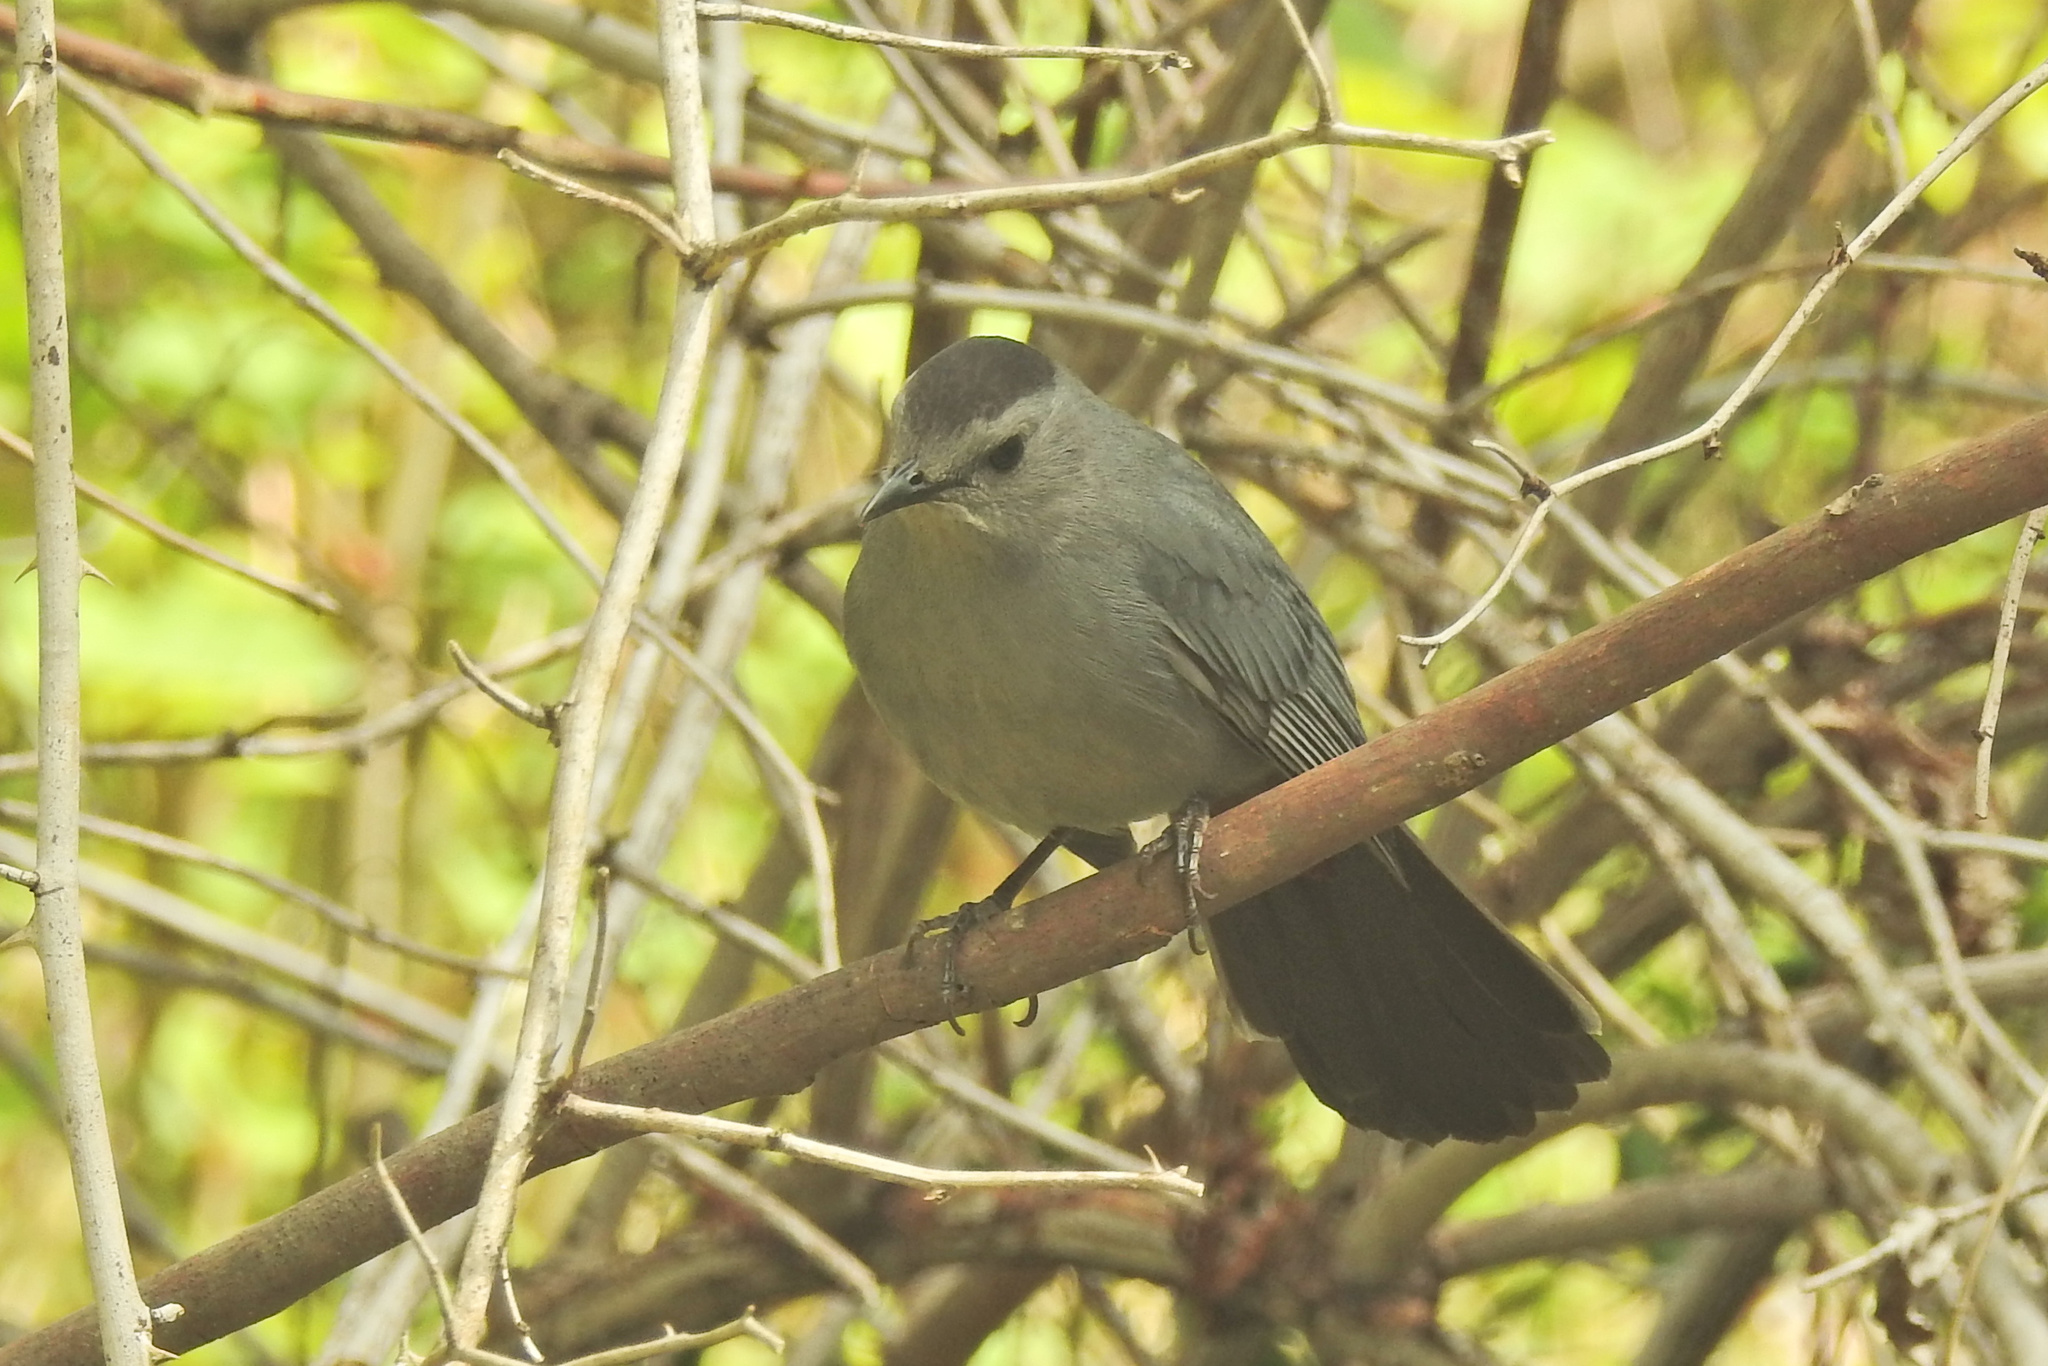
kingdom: Animalia
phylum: Chordata
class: Aves
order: Passeriformes
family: Mimidae
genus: Dumetella
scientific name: Dumetella carolinensis
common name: Gray catbird
